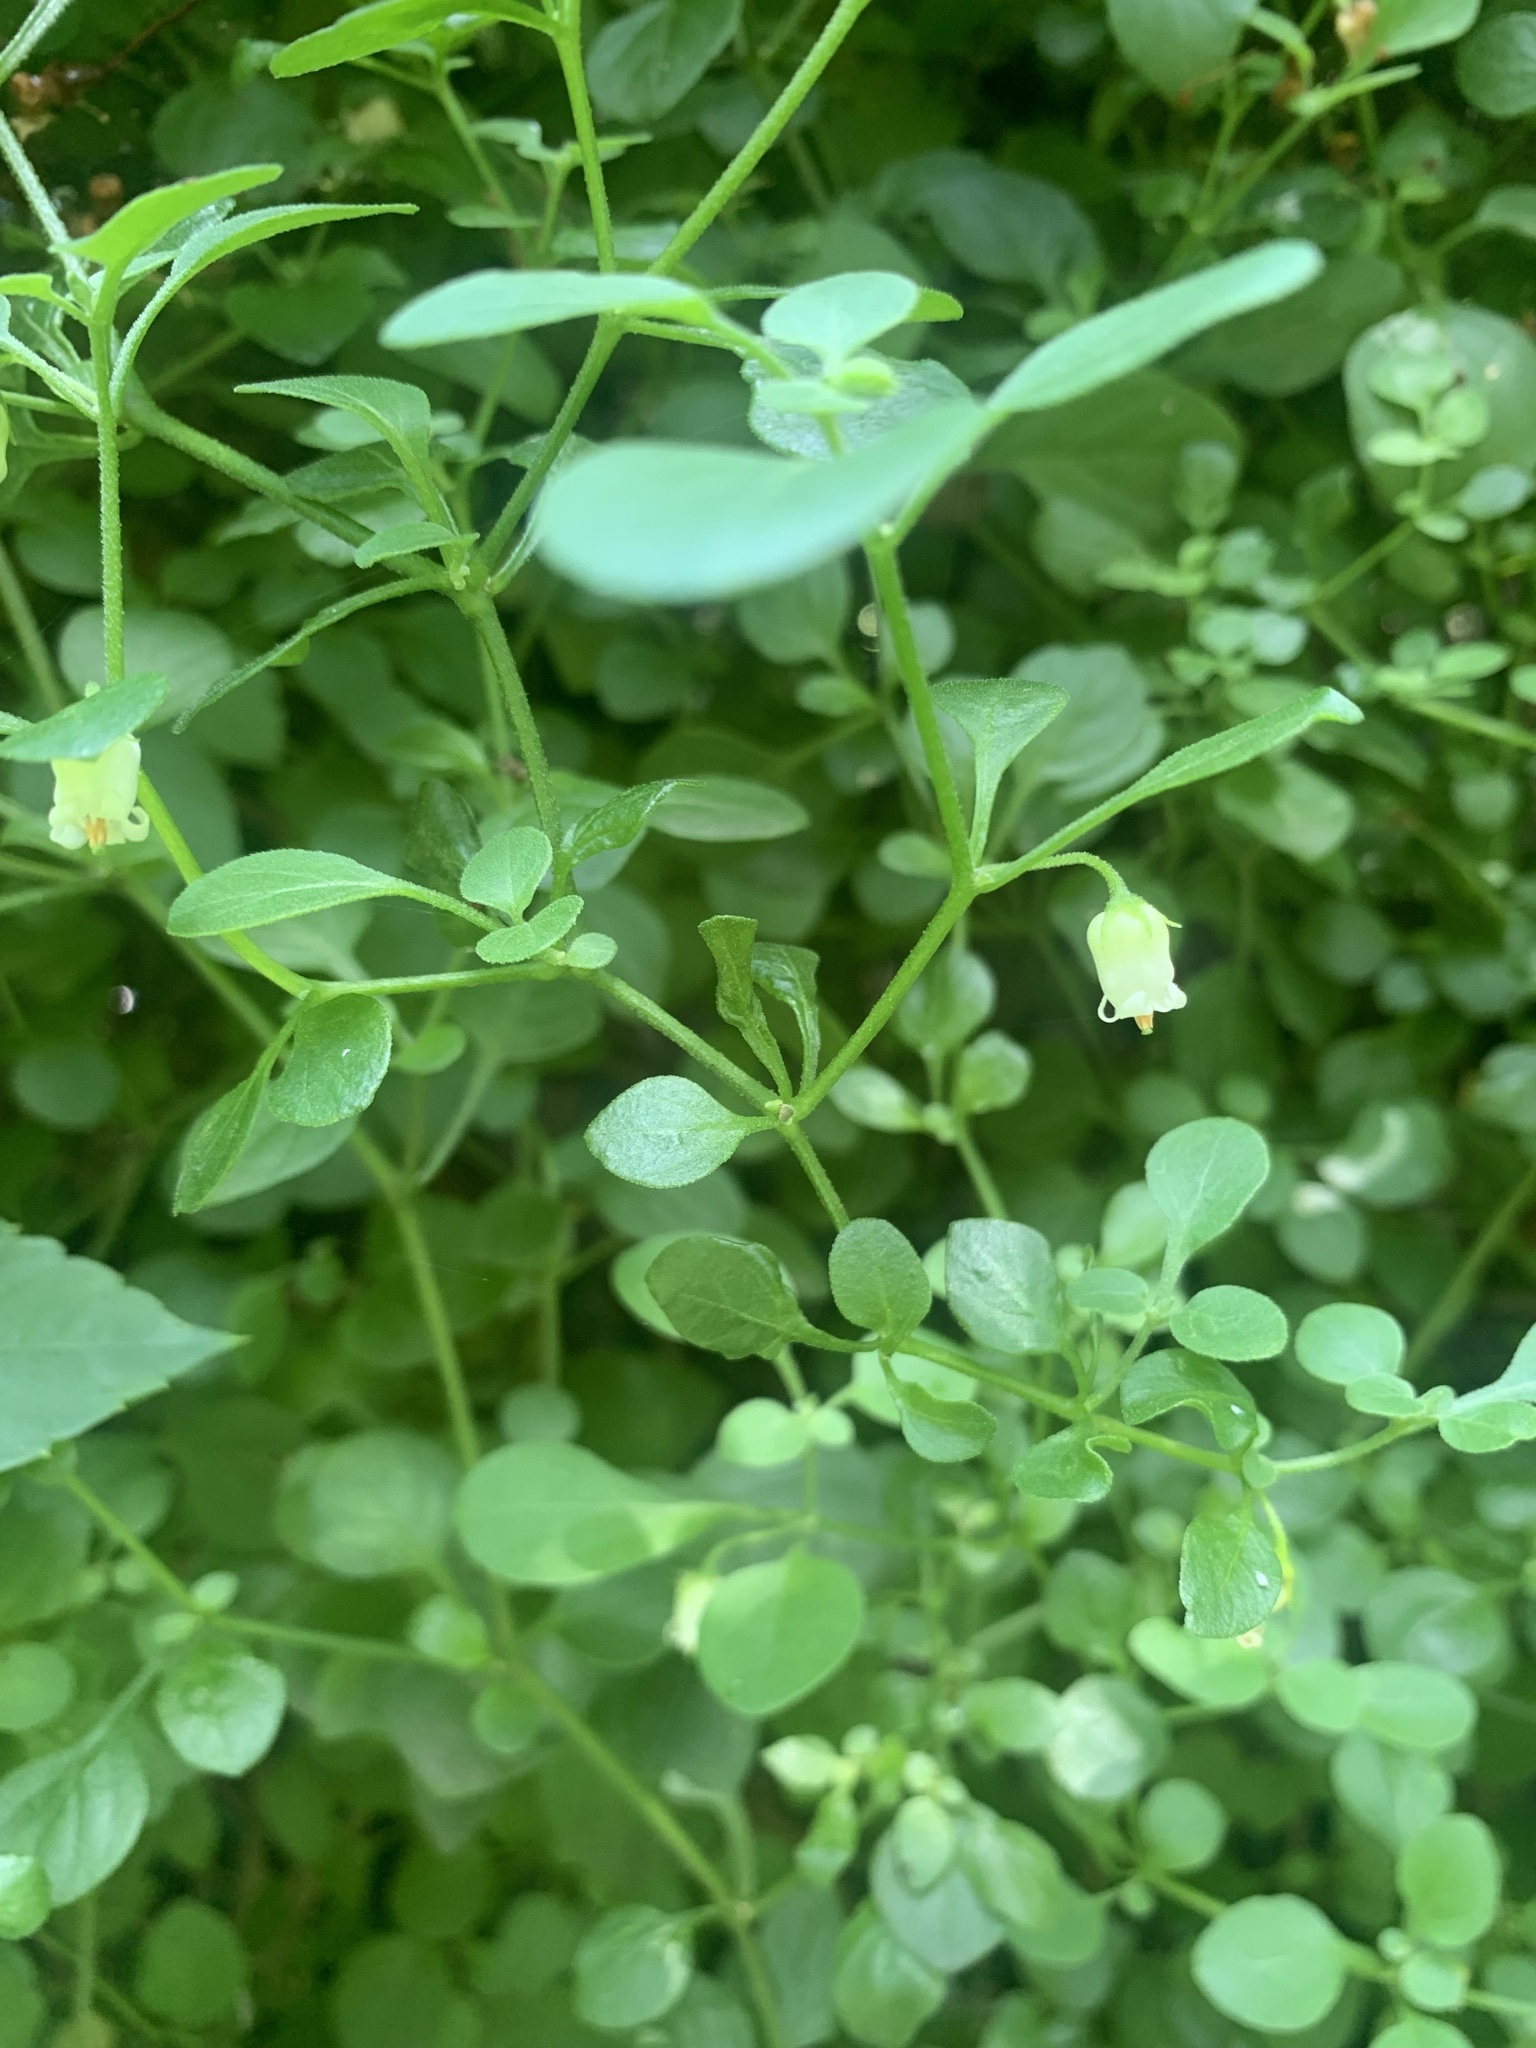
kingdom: Plantae
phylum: Tracheophyta
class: Magnoliopsida
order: Solanales
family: Solanaceae
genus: Salpichroa
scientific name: Salpichroa origanifolia
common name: Lily-of-the-valley-vine
